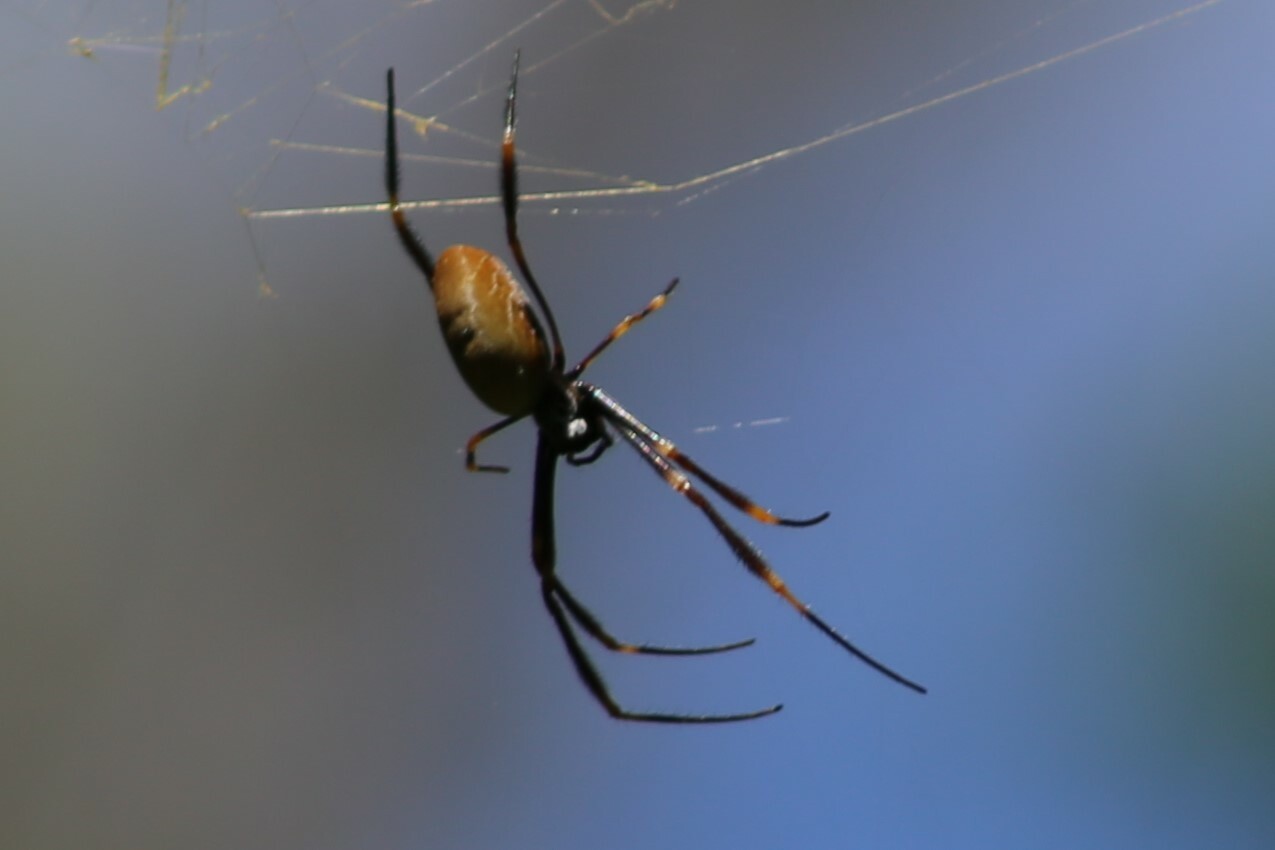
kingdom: Animalia
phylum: Arthropoda
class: Arachnida
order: Araneae
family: Araneidae
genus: Trichonephila
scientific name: Trichonephila plumipes
